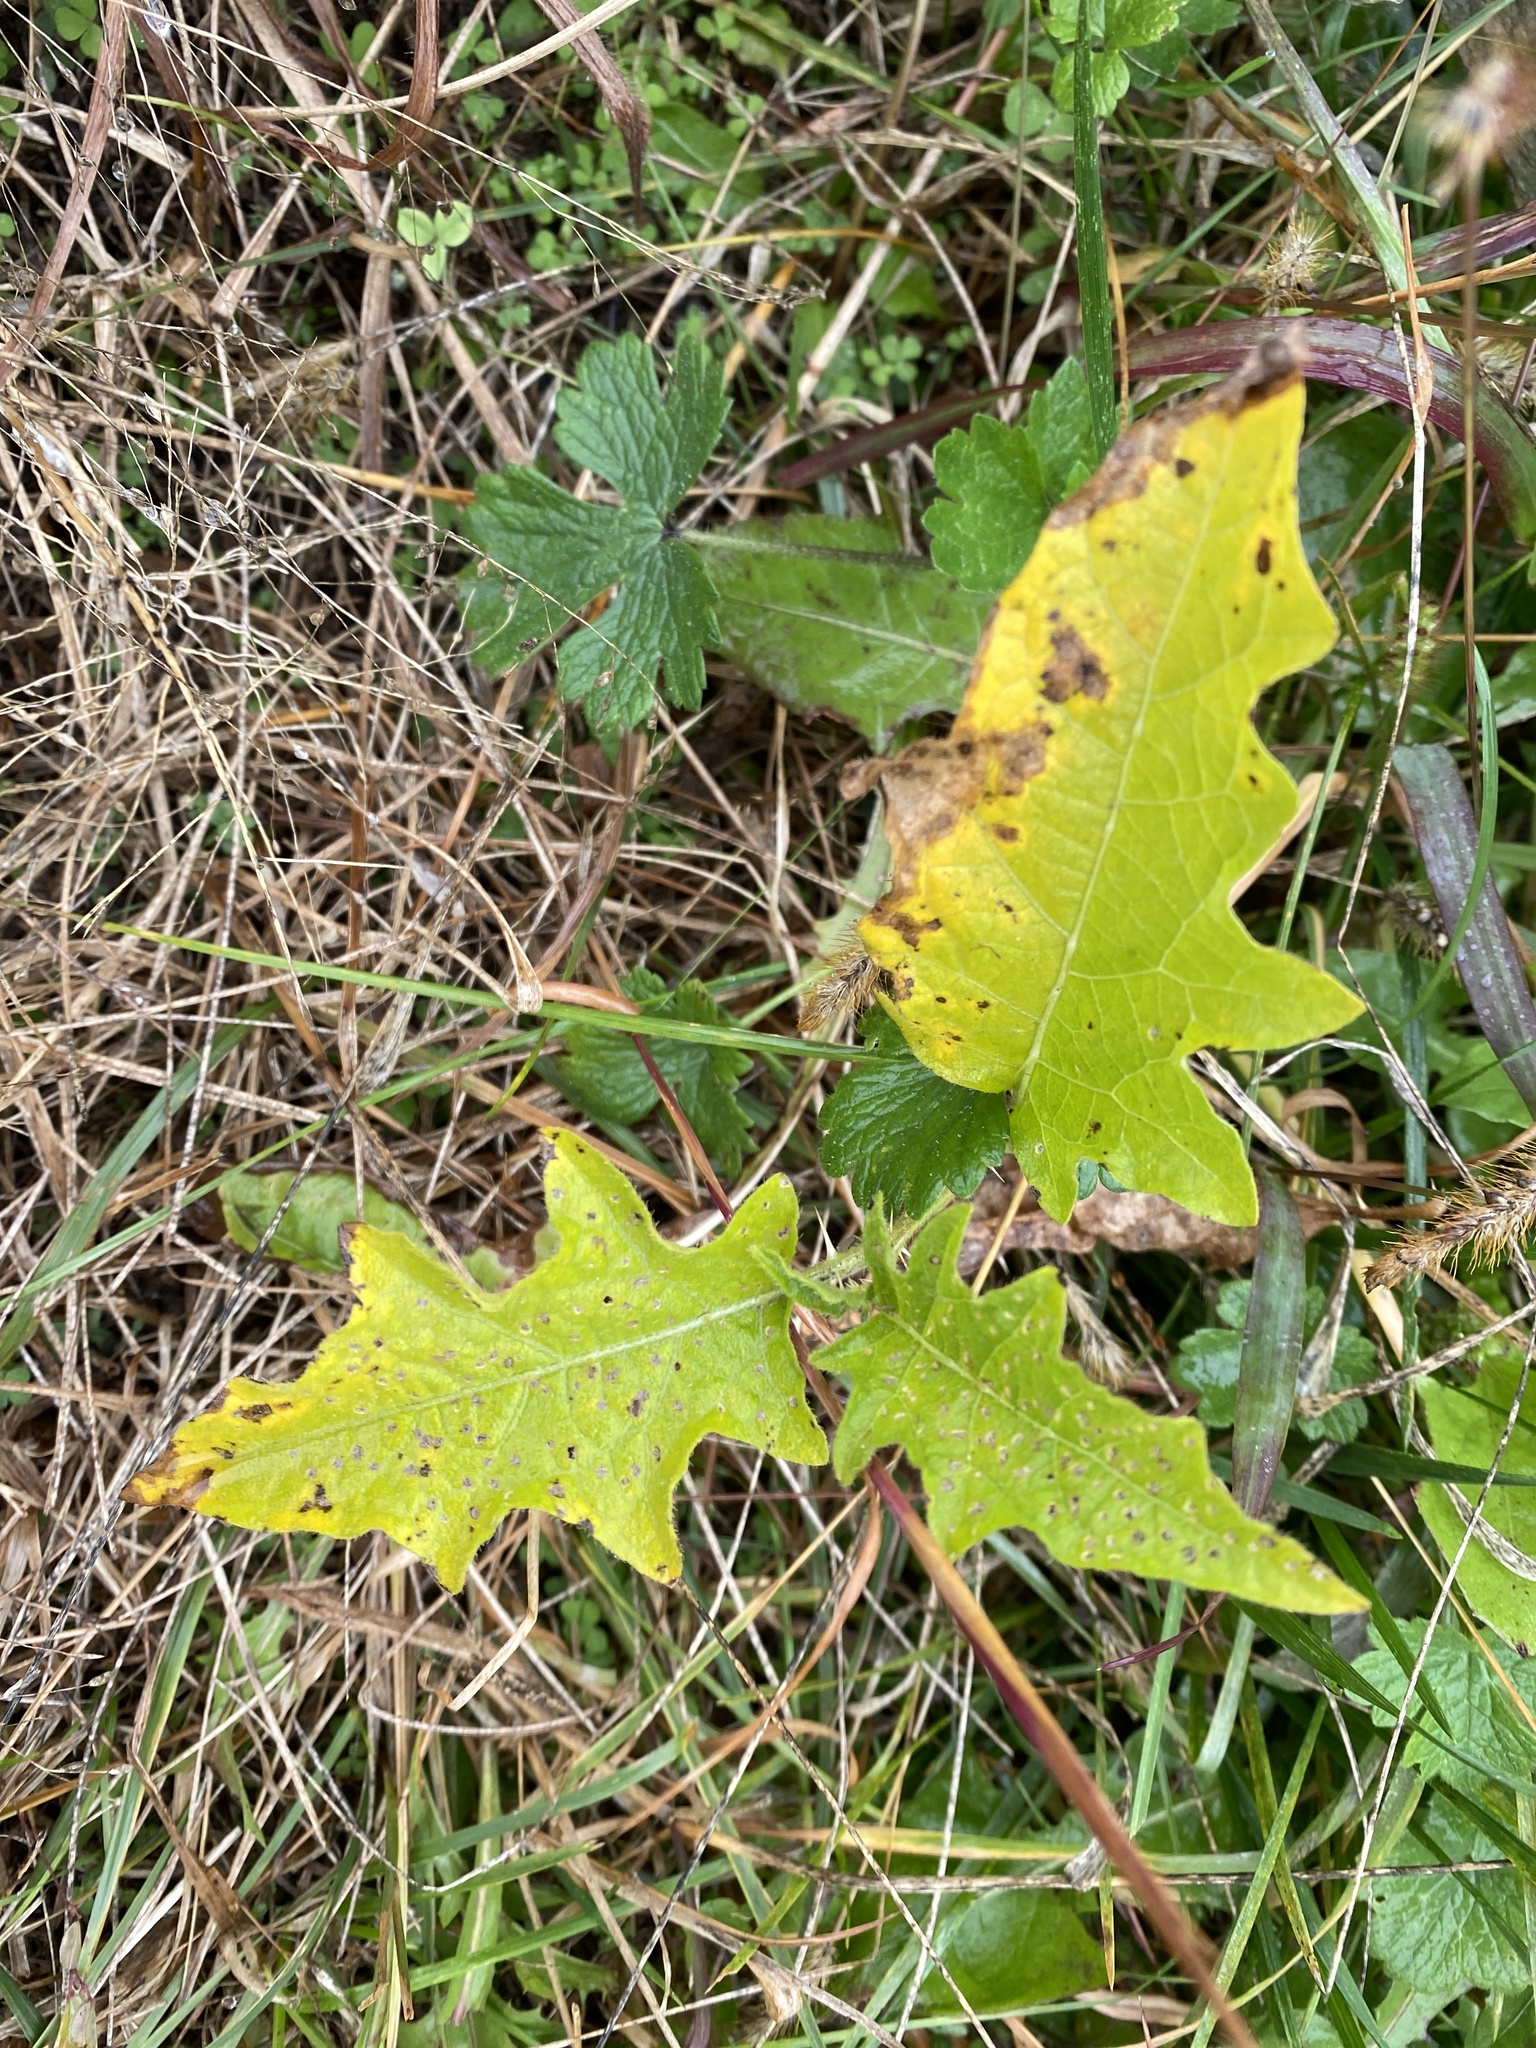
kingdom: Plantae
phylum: Tracheophyta
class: Magnoliopsida
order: Solanales
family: Solanaceae
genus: Solanum
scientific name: Solanum carolinense
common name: Horse-nettle
